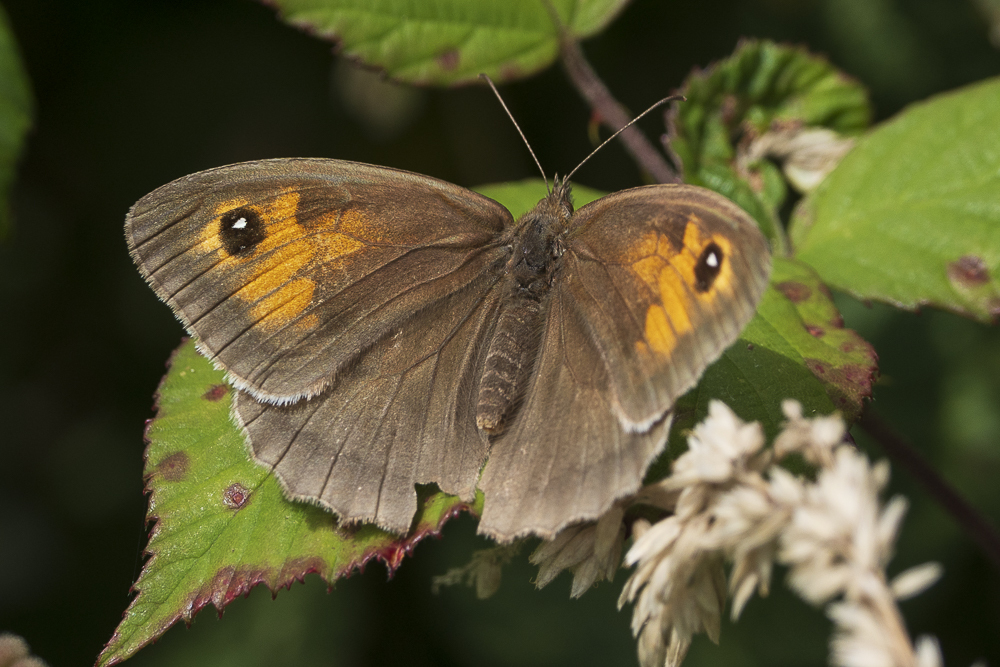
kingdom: Animalia
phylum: Arthropoda
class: Insecta
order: Lepidoptera
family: Nymphalidae
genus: Maniola
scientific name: Maniola jurtina
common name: Meadow brown
